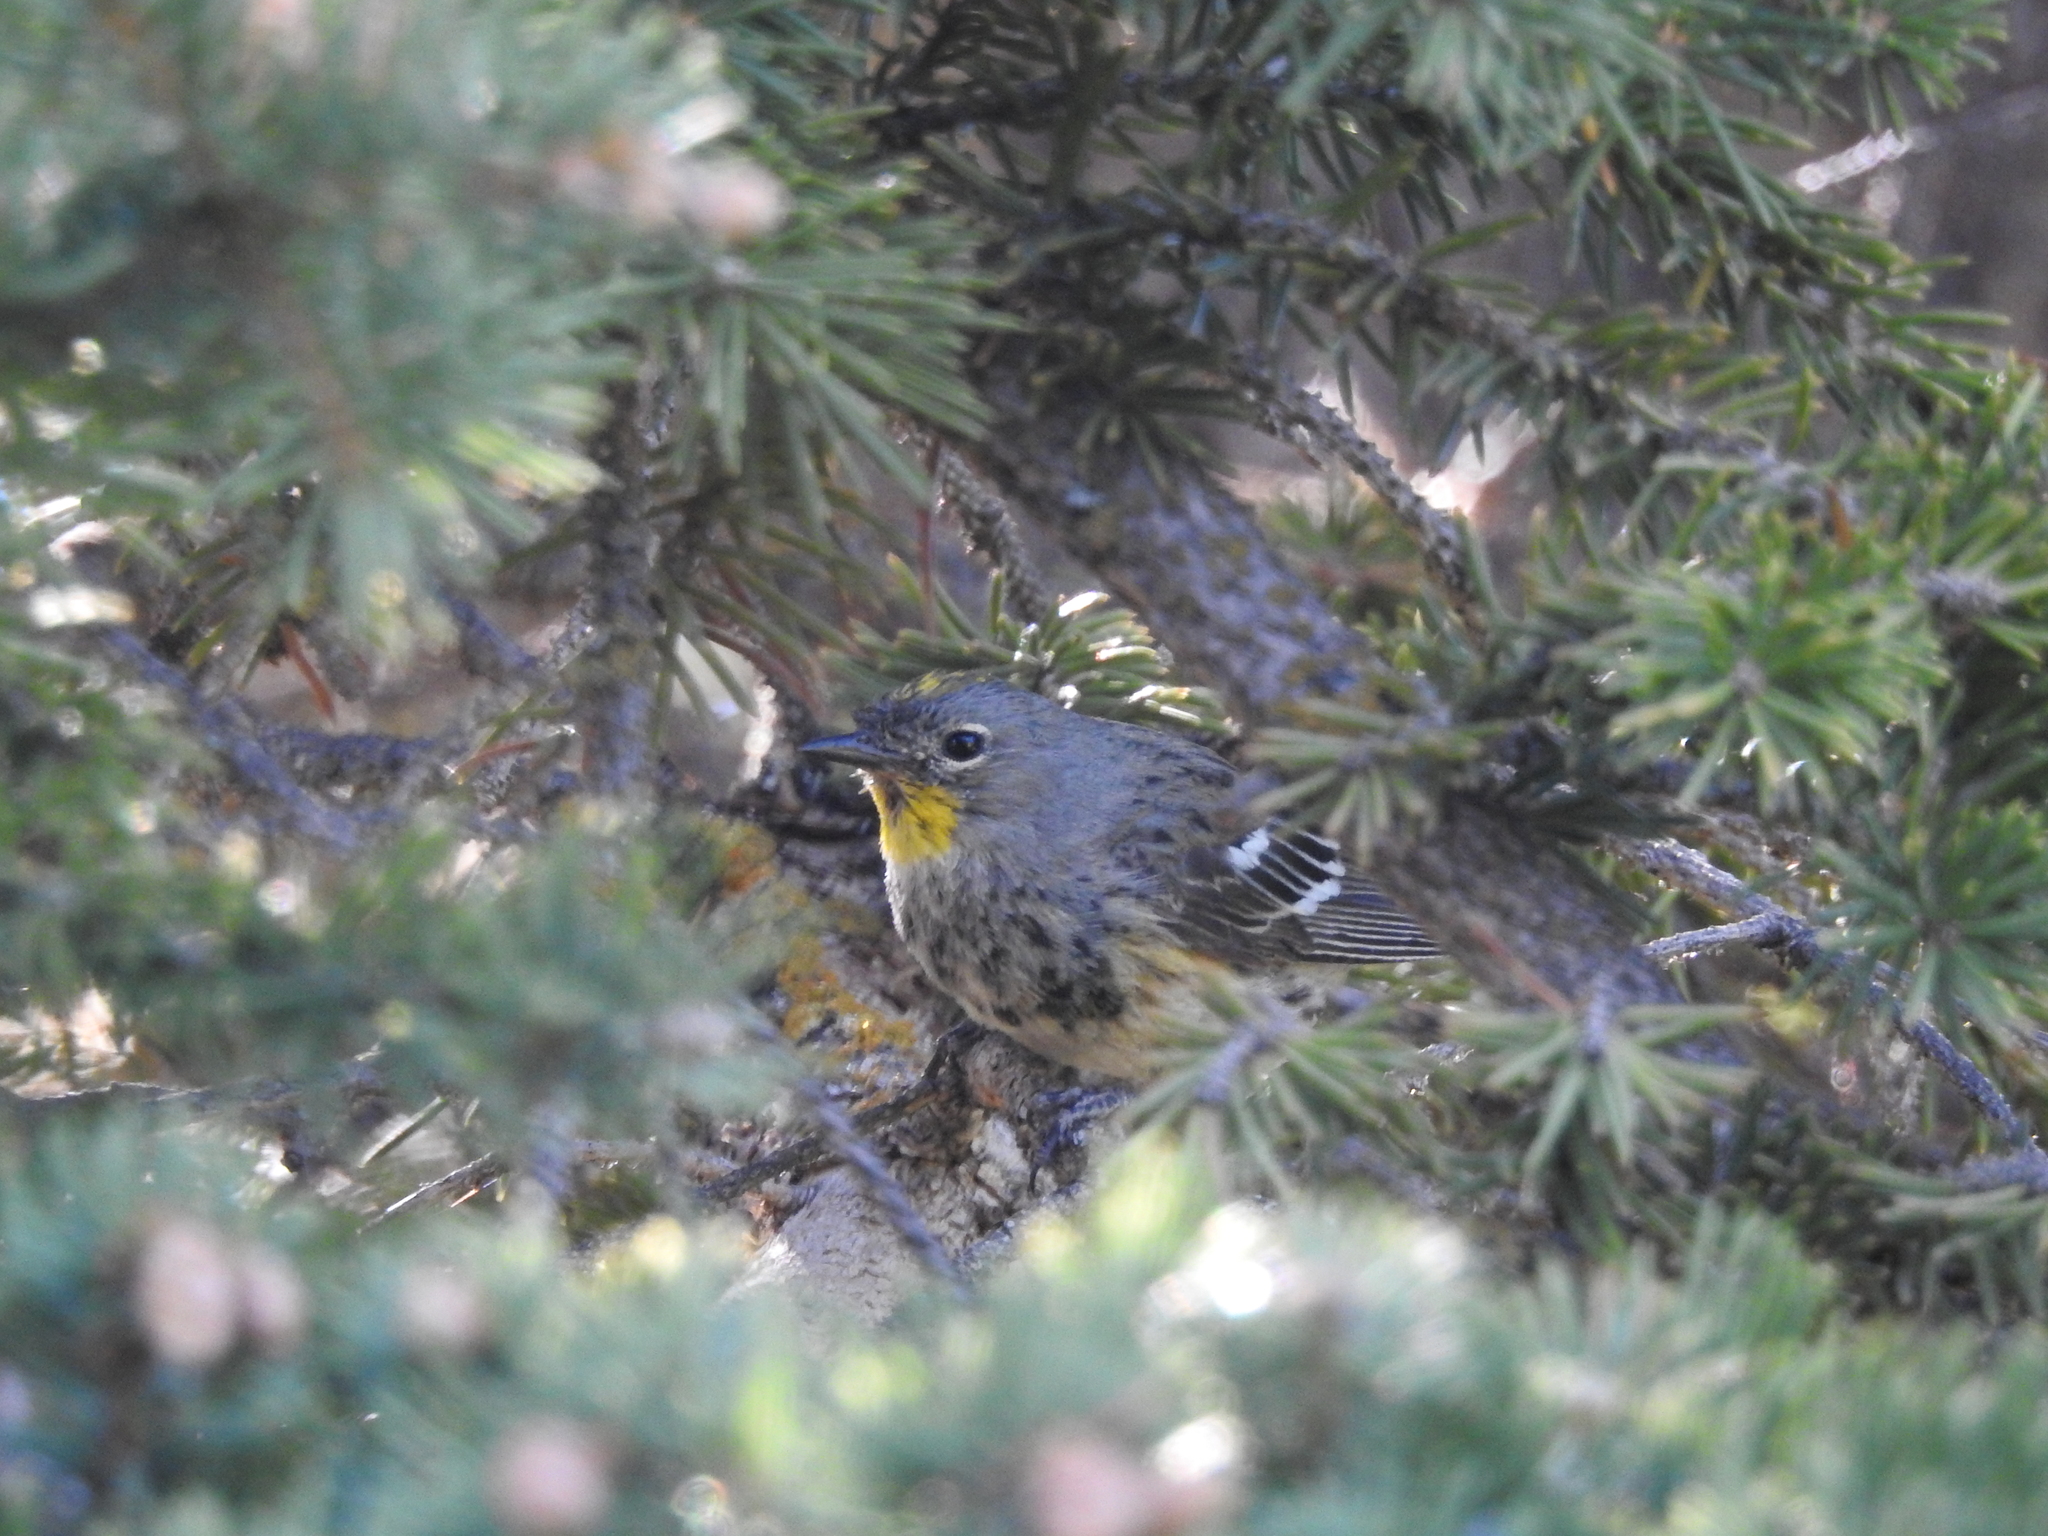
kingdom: Animalia
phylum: Chordata
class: Aves
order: Passeriformes
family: Parulidae
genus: Setophaga
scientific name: Setophaga coronata
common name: Myrtle warbler
